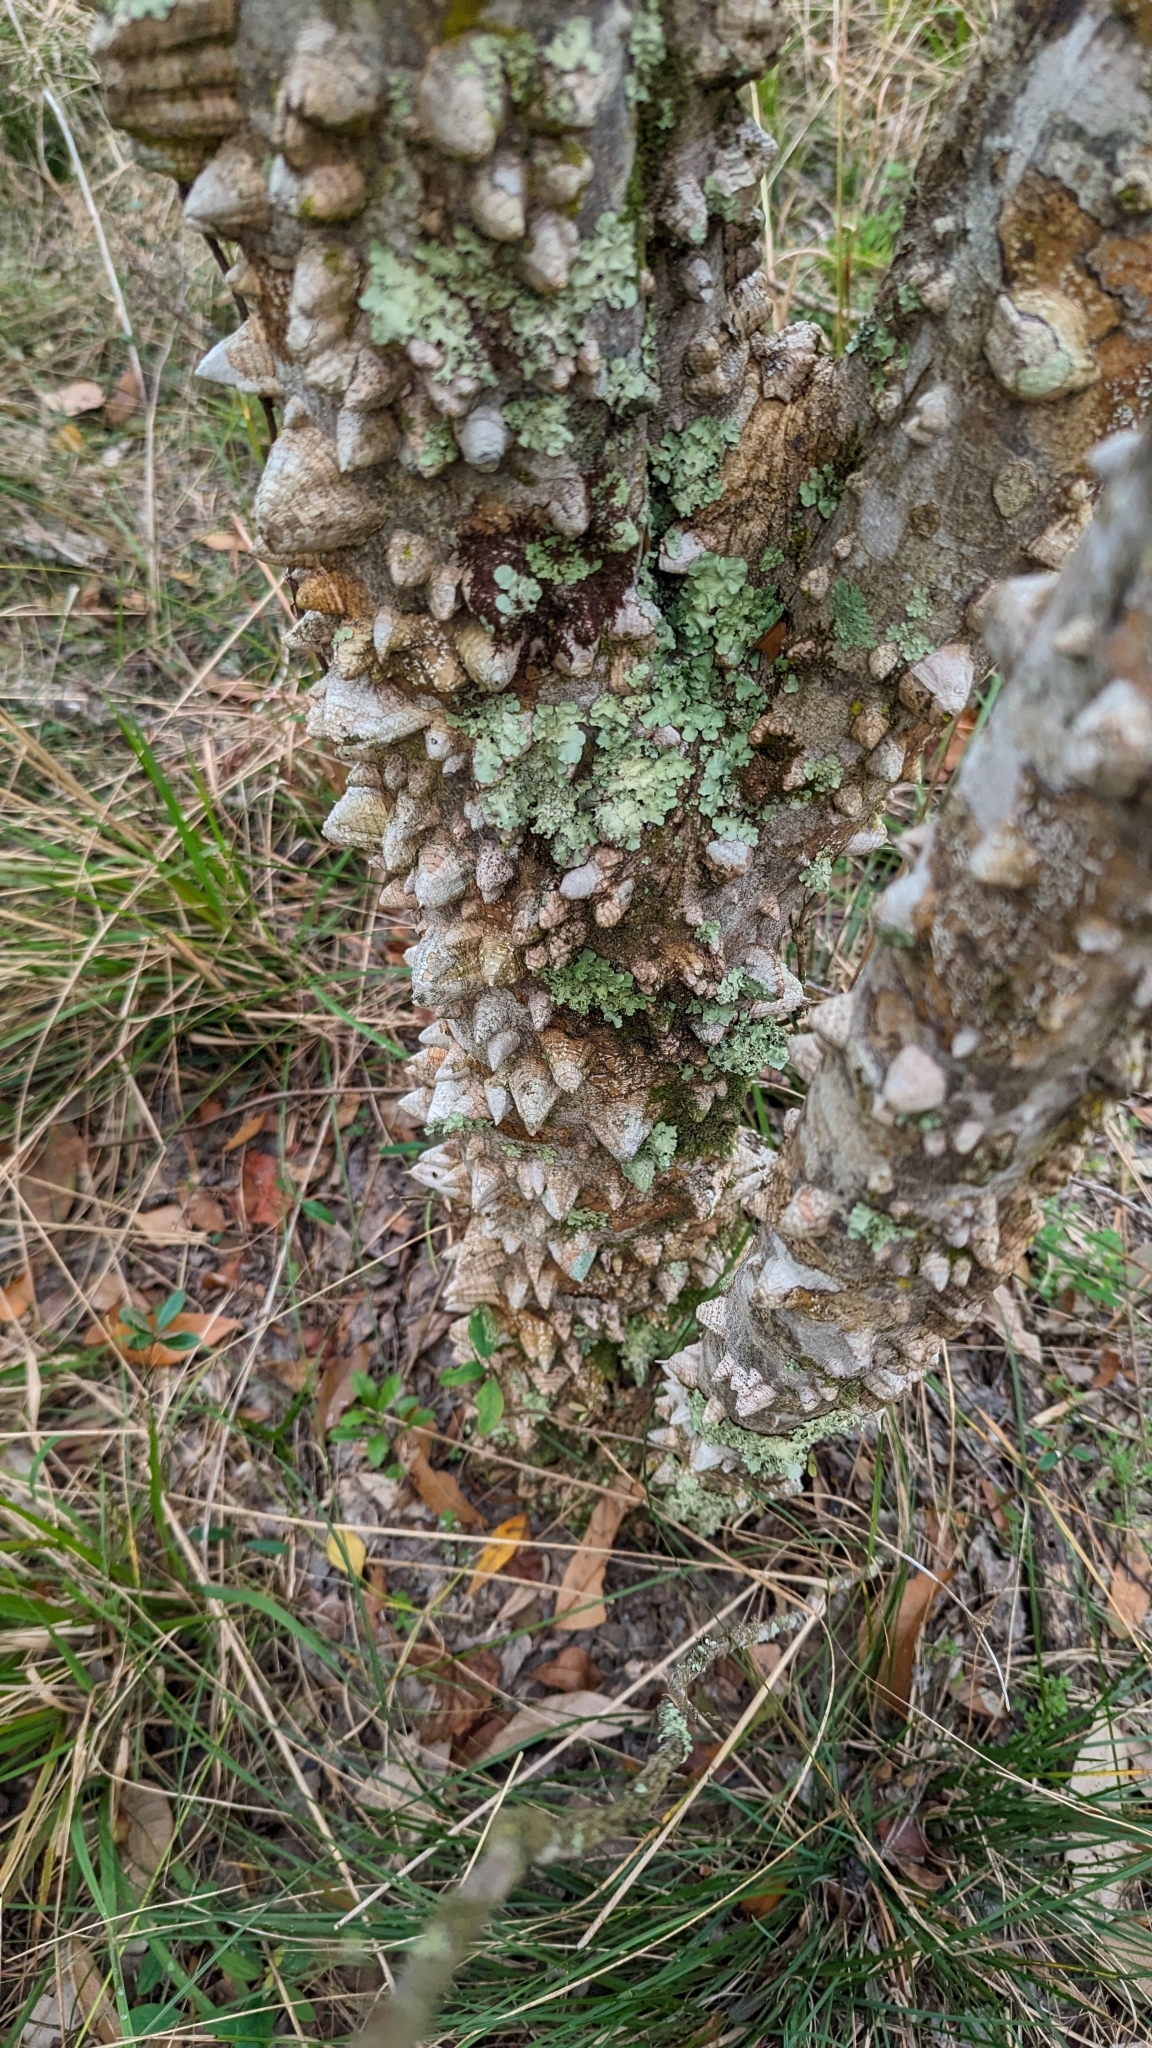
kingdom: Plantae
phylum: Tracheophyta
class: Magnoliopsida
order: Sapindales
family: Rutaceae
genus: Zanthoxylum
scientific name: Zanthoxylum clava-herculis
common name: Hercules'-club
